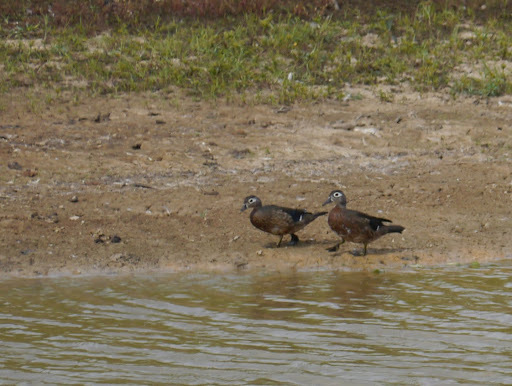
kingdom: Animalia
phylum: Chordata
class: Aves
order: Anseriformes
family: Anatidae
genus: Aix
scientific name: Aix sponsa
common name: Wood duck
